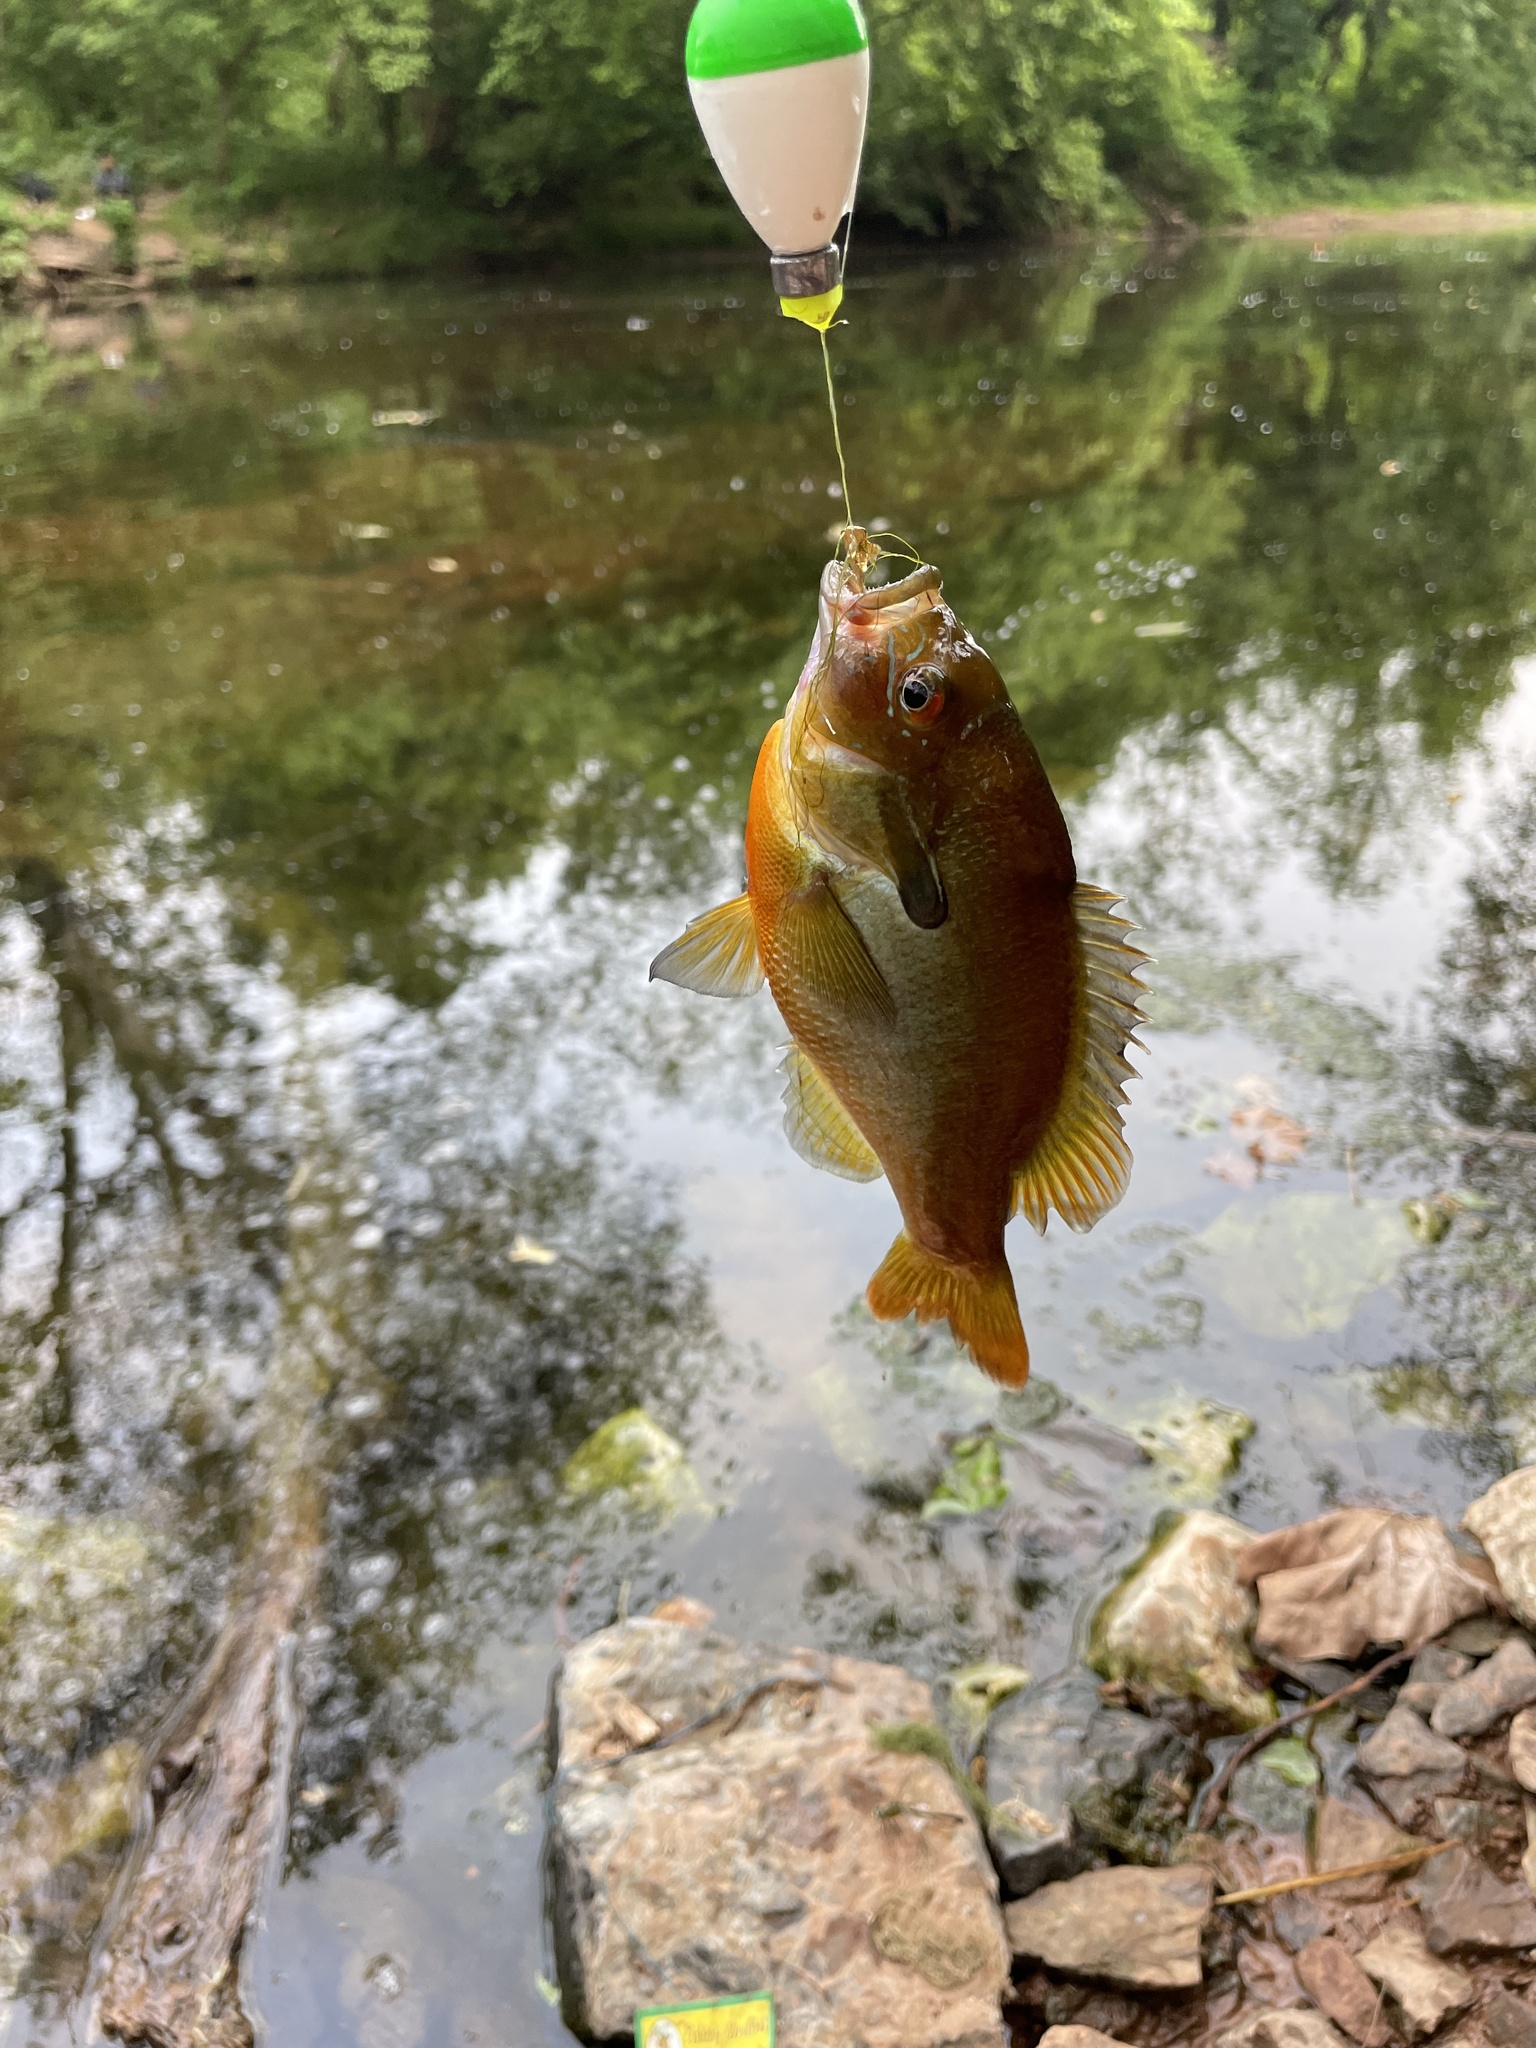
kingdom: Animalia
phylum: Chordata
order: Perciformes
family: Centrarchidae
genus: Lepomis
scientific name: Lepomis auritus
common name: Redbreast sunfish
